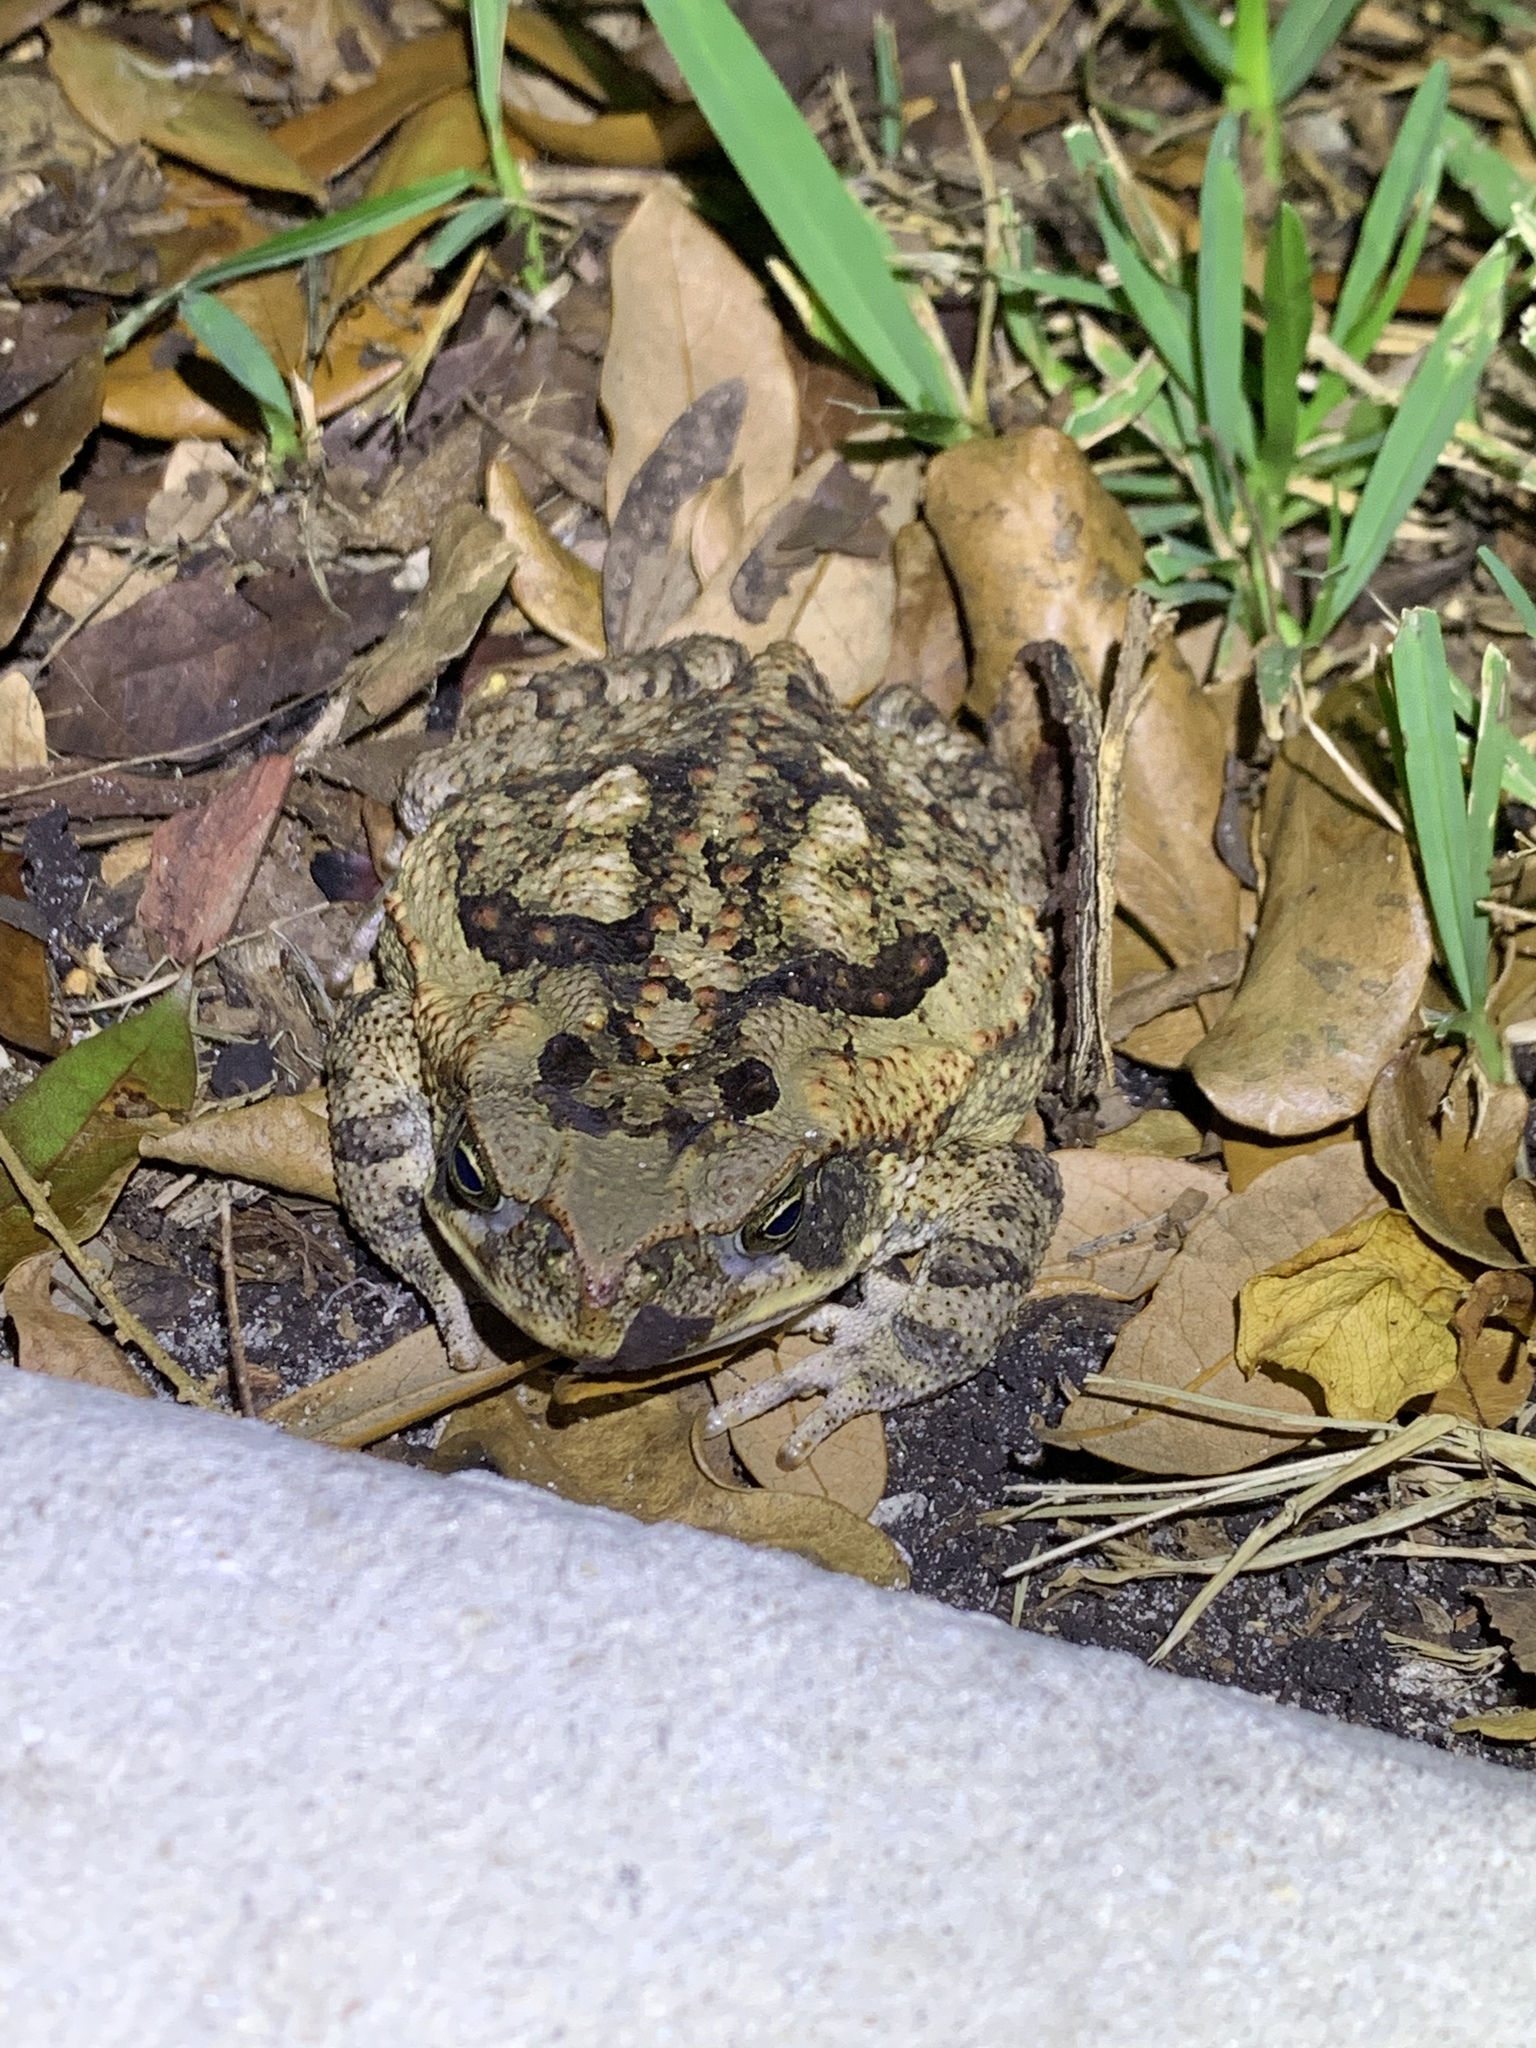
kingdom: Animalia
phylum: Chordata
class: Amphibia
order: Anura
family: Bufonidae
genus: Rhinella
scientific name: Rhinella marina
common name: Cane toad
